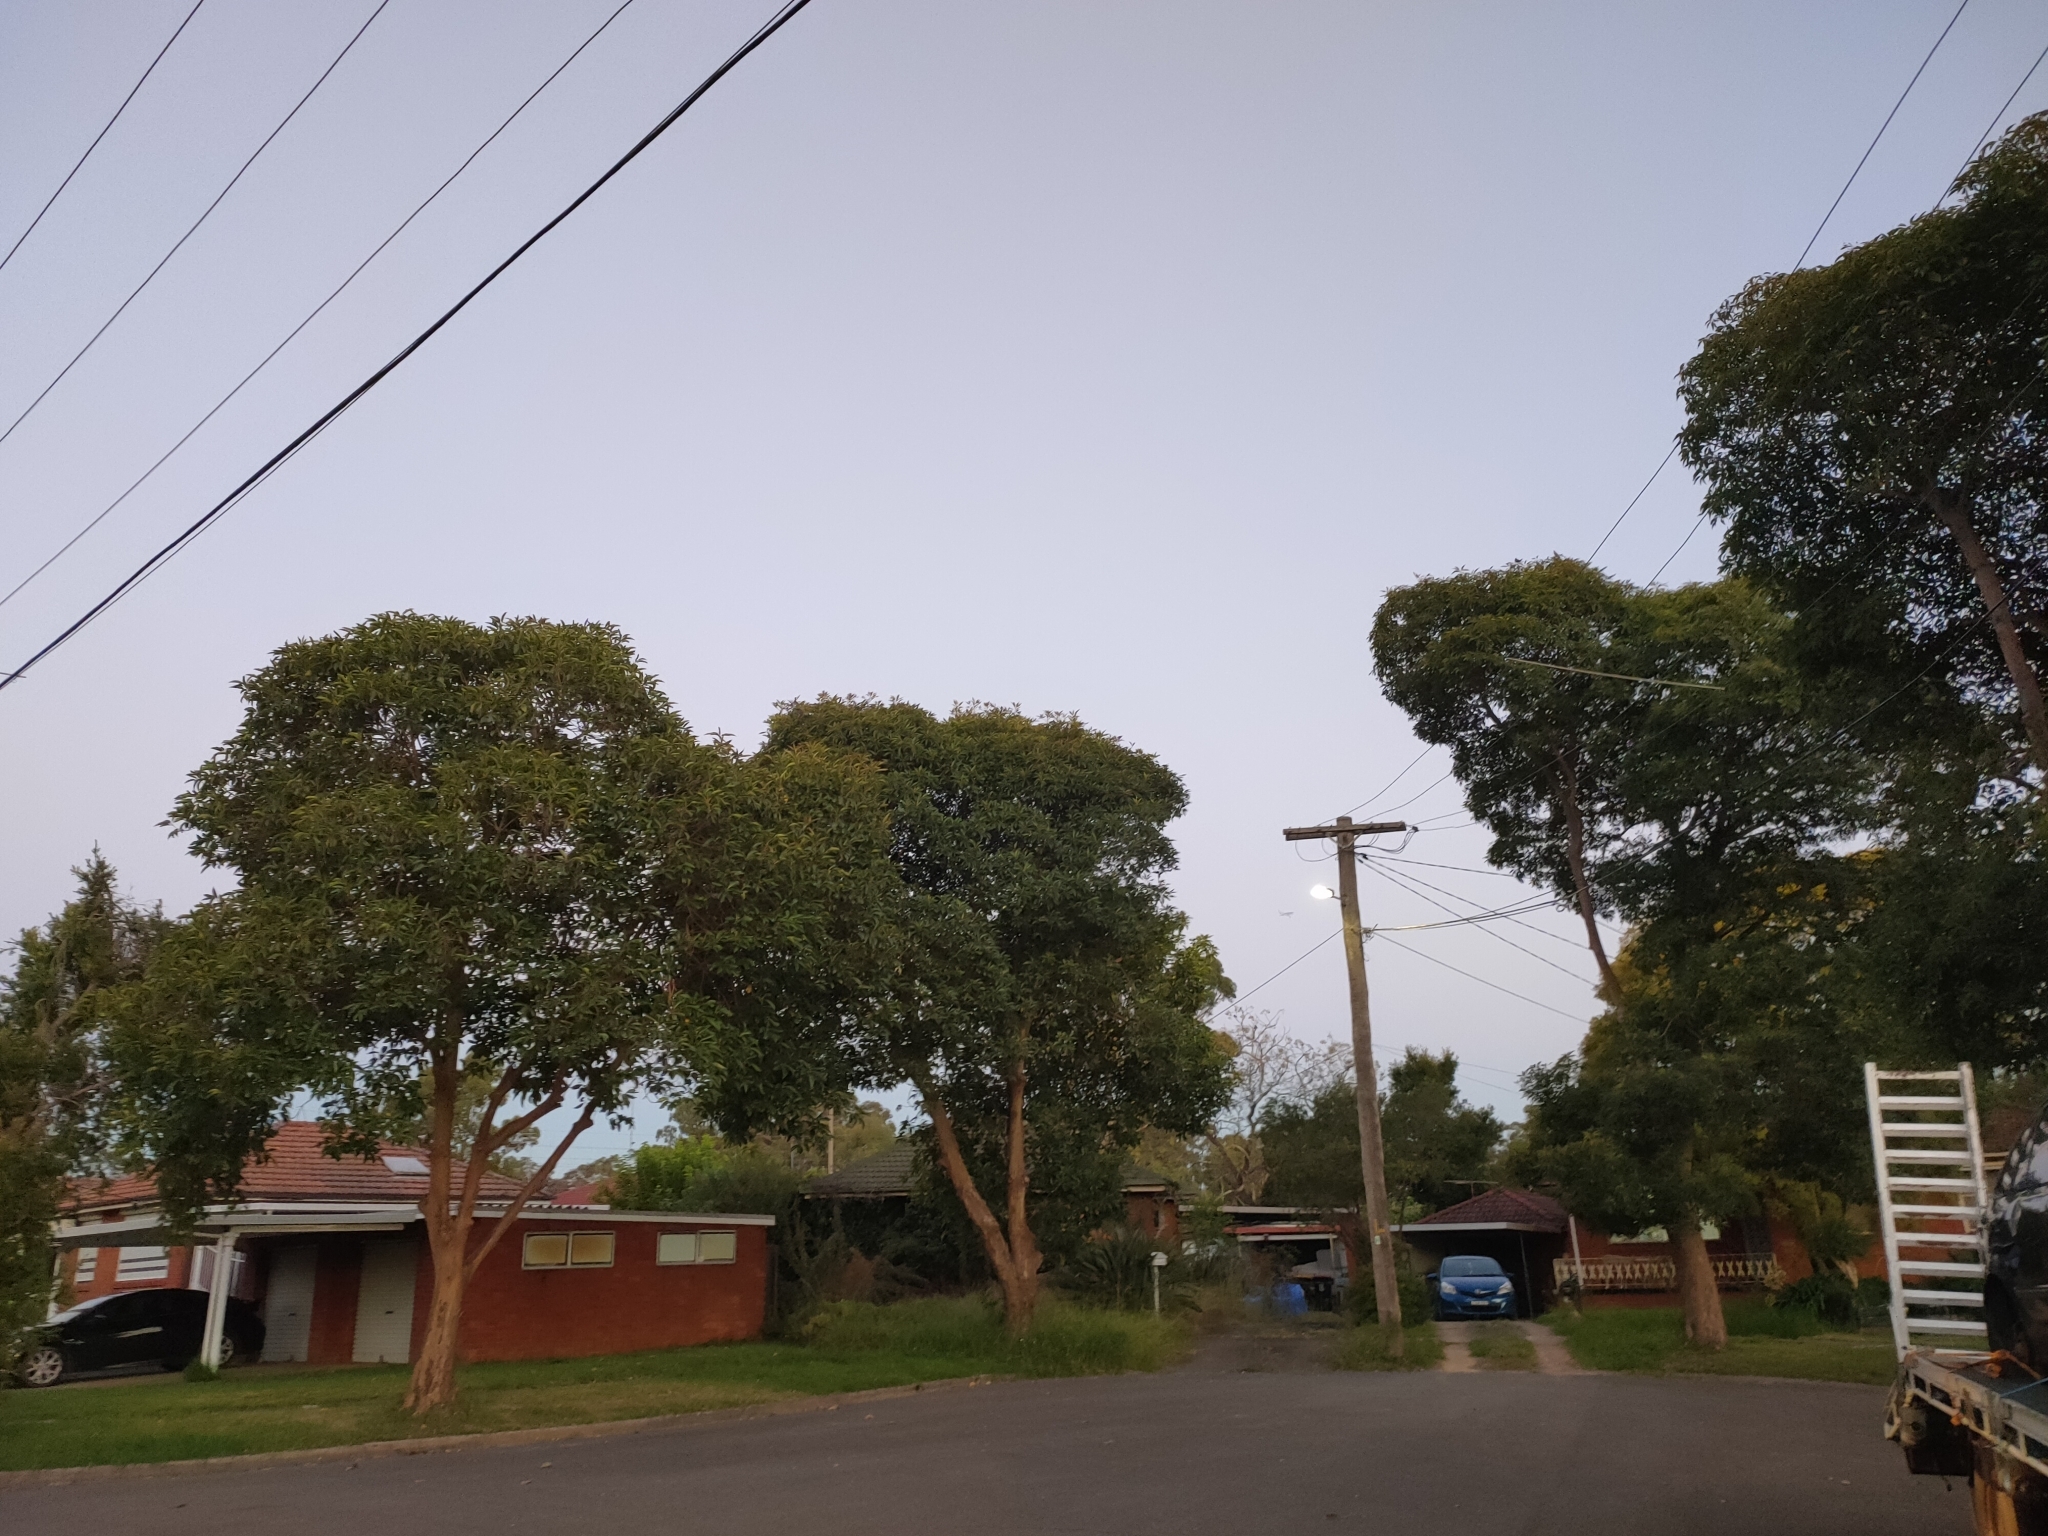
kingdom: Animalia
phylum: Chordata
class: Aves
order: Passeriformes
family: Sturnidae
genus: Acridotheres
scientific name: Acridotheres tristis
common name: Common myna
